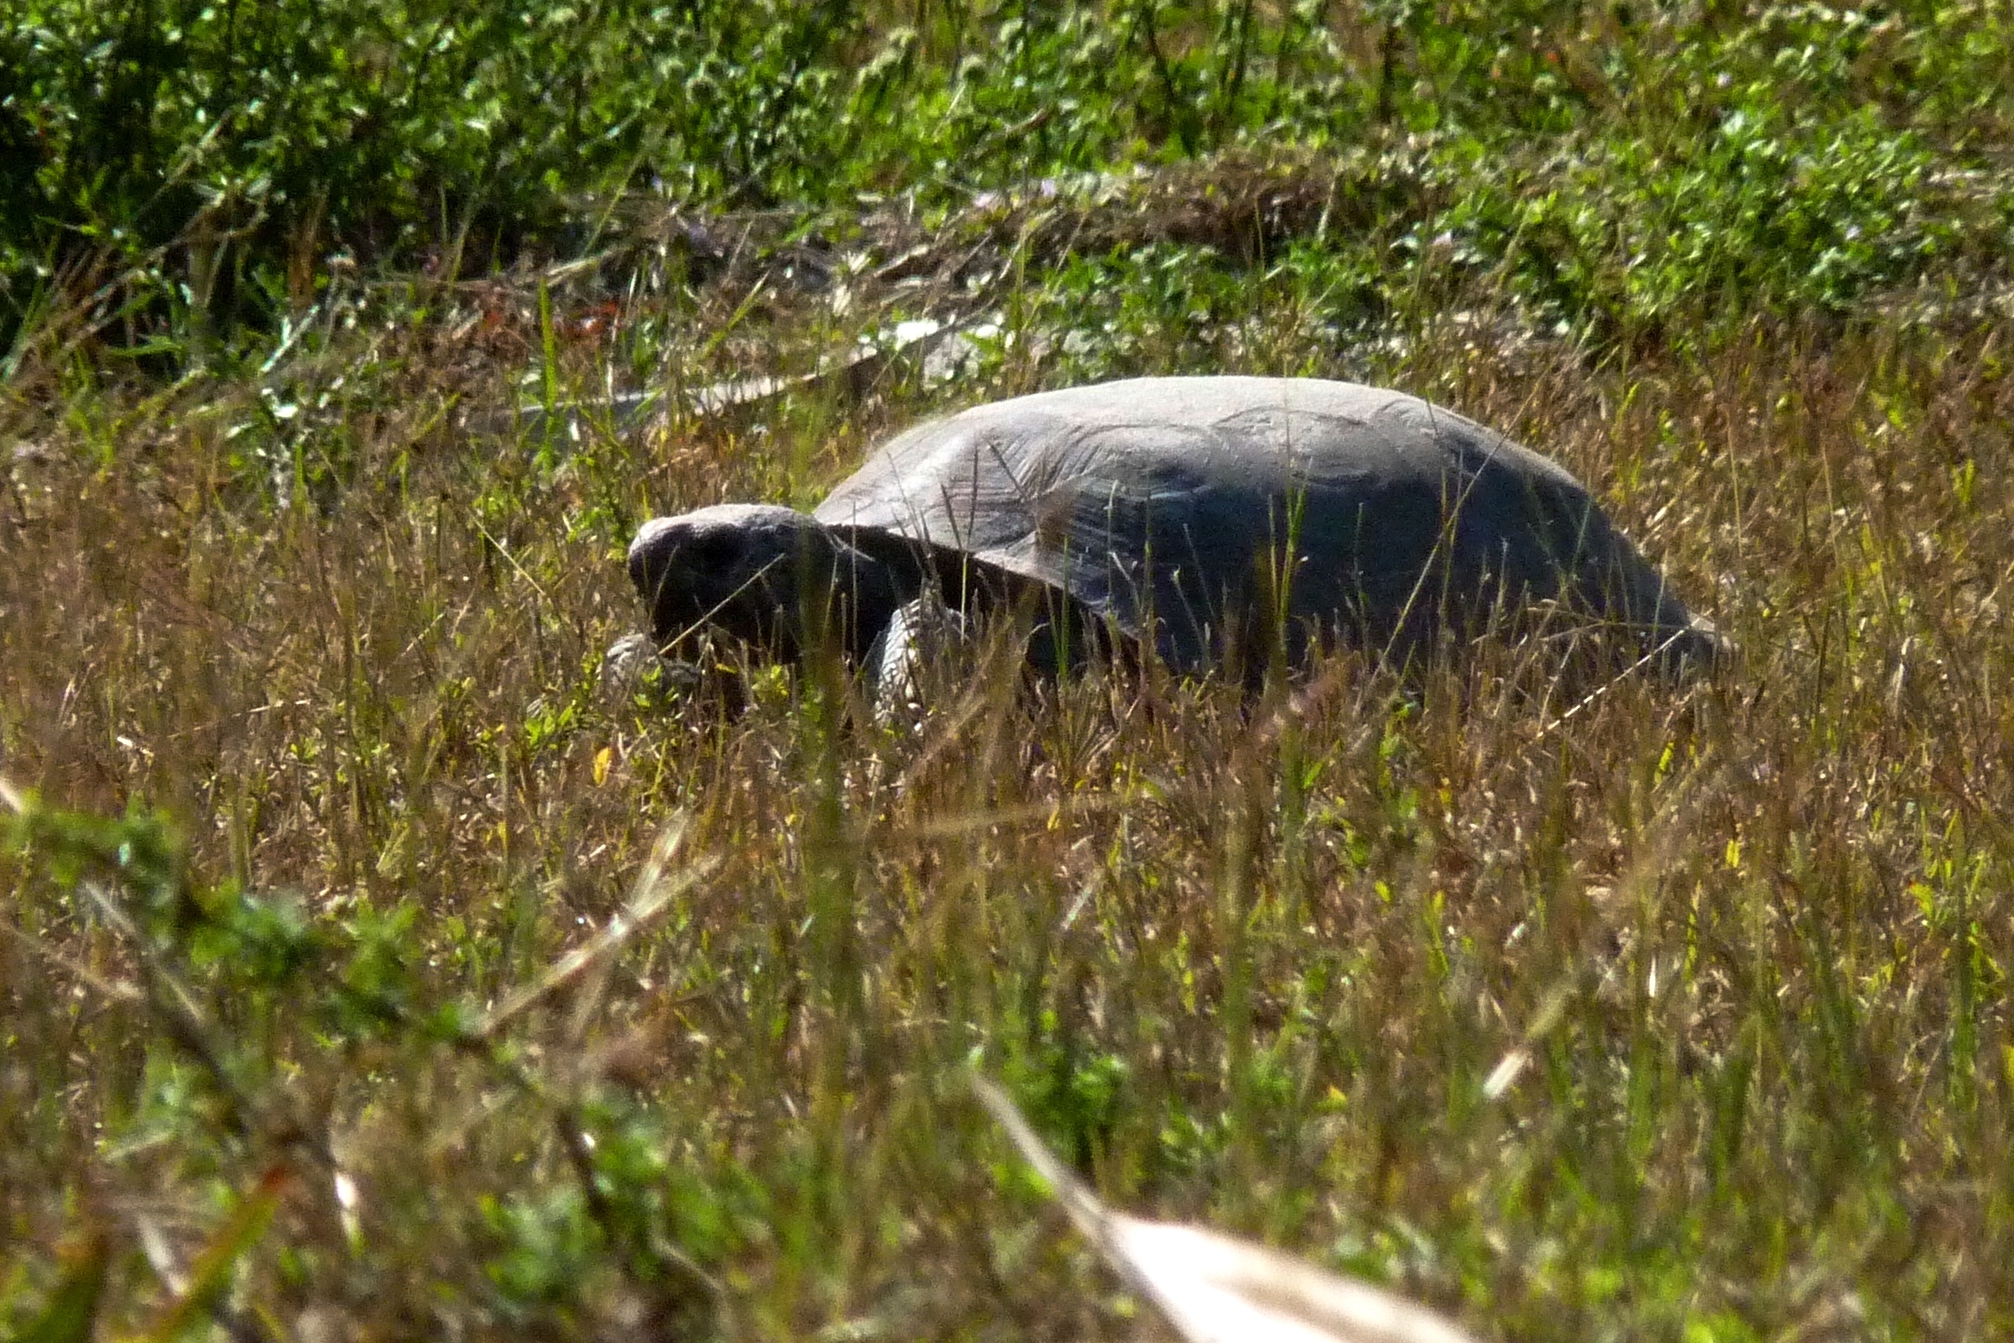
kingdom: Animalia
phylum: Chordata
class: Testudines
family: Testudinidae
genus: Gopherus
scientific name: Gopherus polyphemus
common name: Florida gopher tortoise
